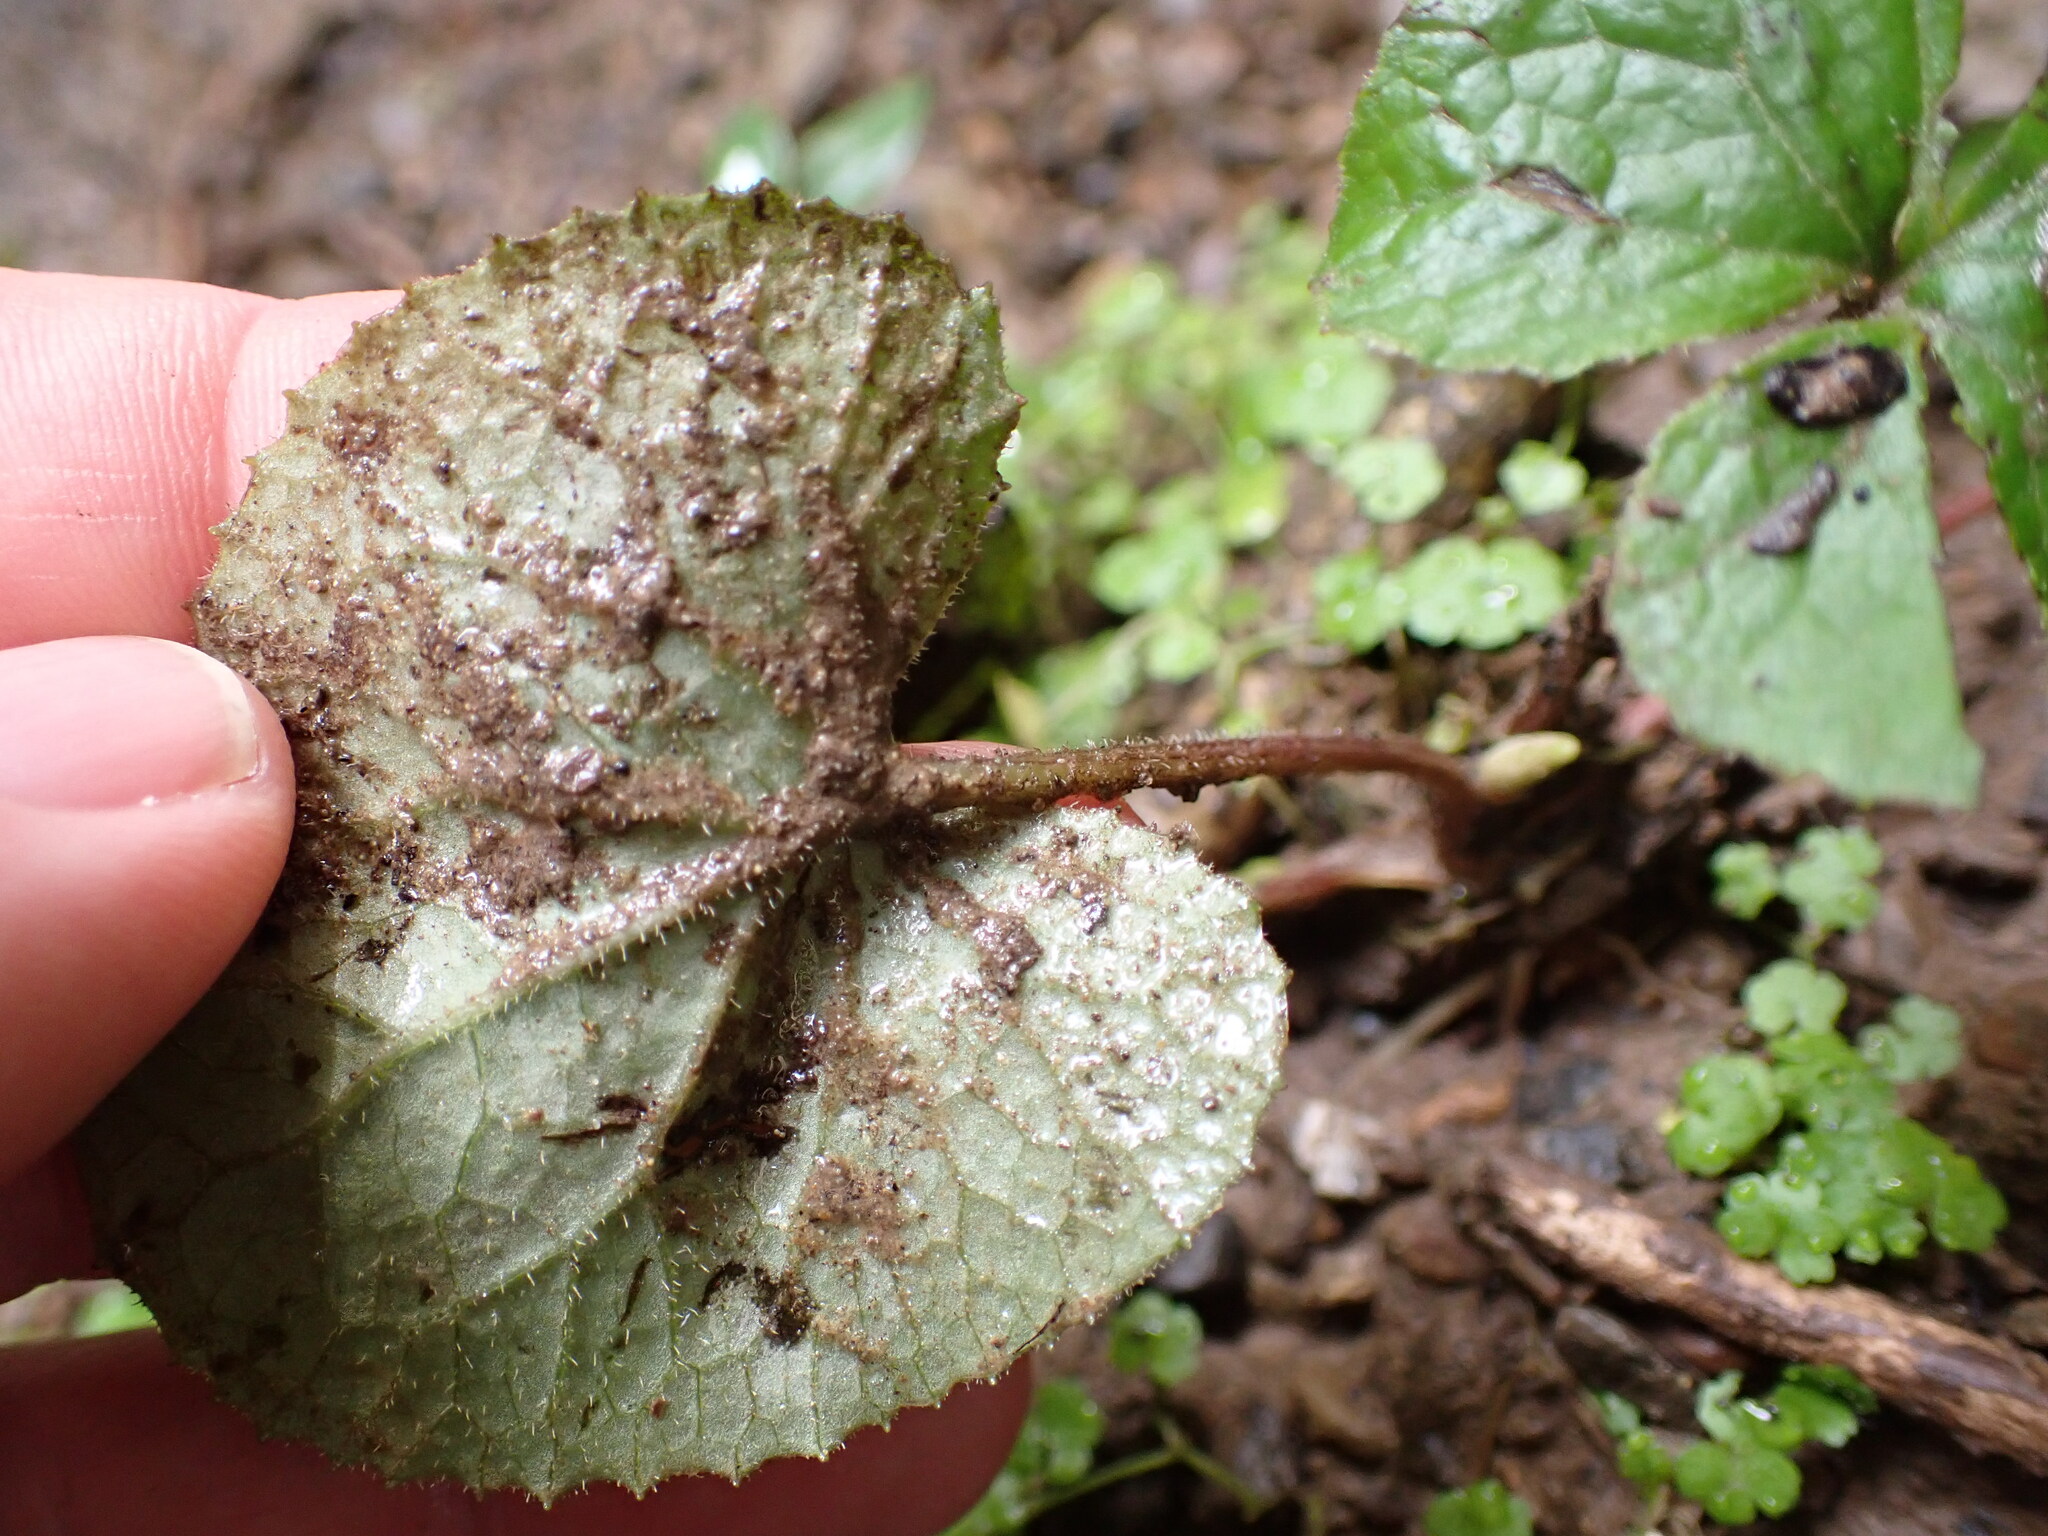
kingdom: Plantae
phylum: Tracheophyta
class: Magnoliopsida
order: Asterales
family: Asteraceae
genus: Petasites
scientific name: Petasites pyrenaicus
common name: Winter heliotrope
